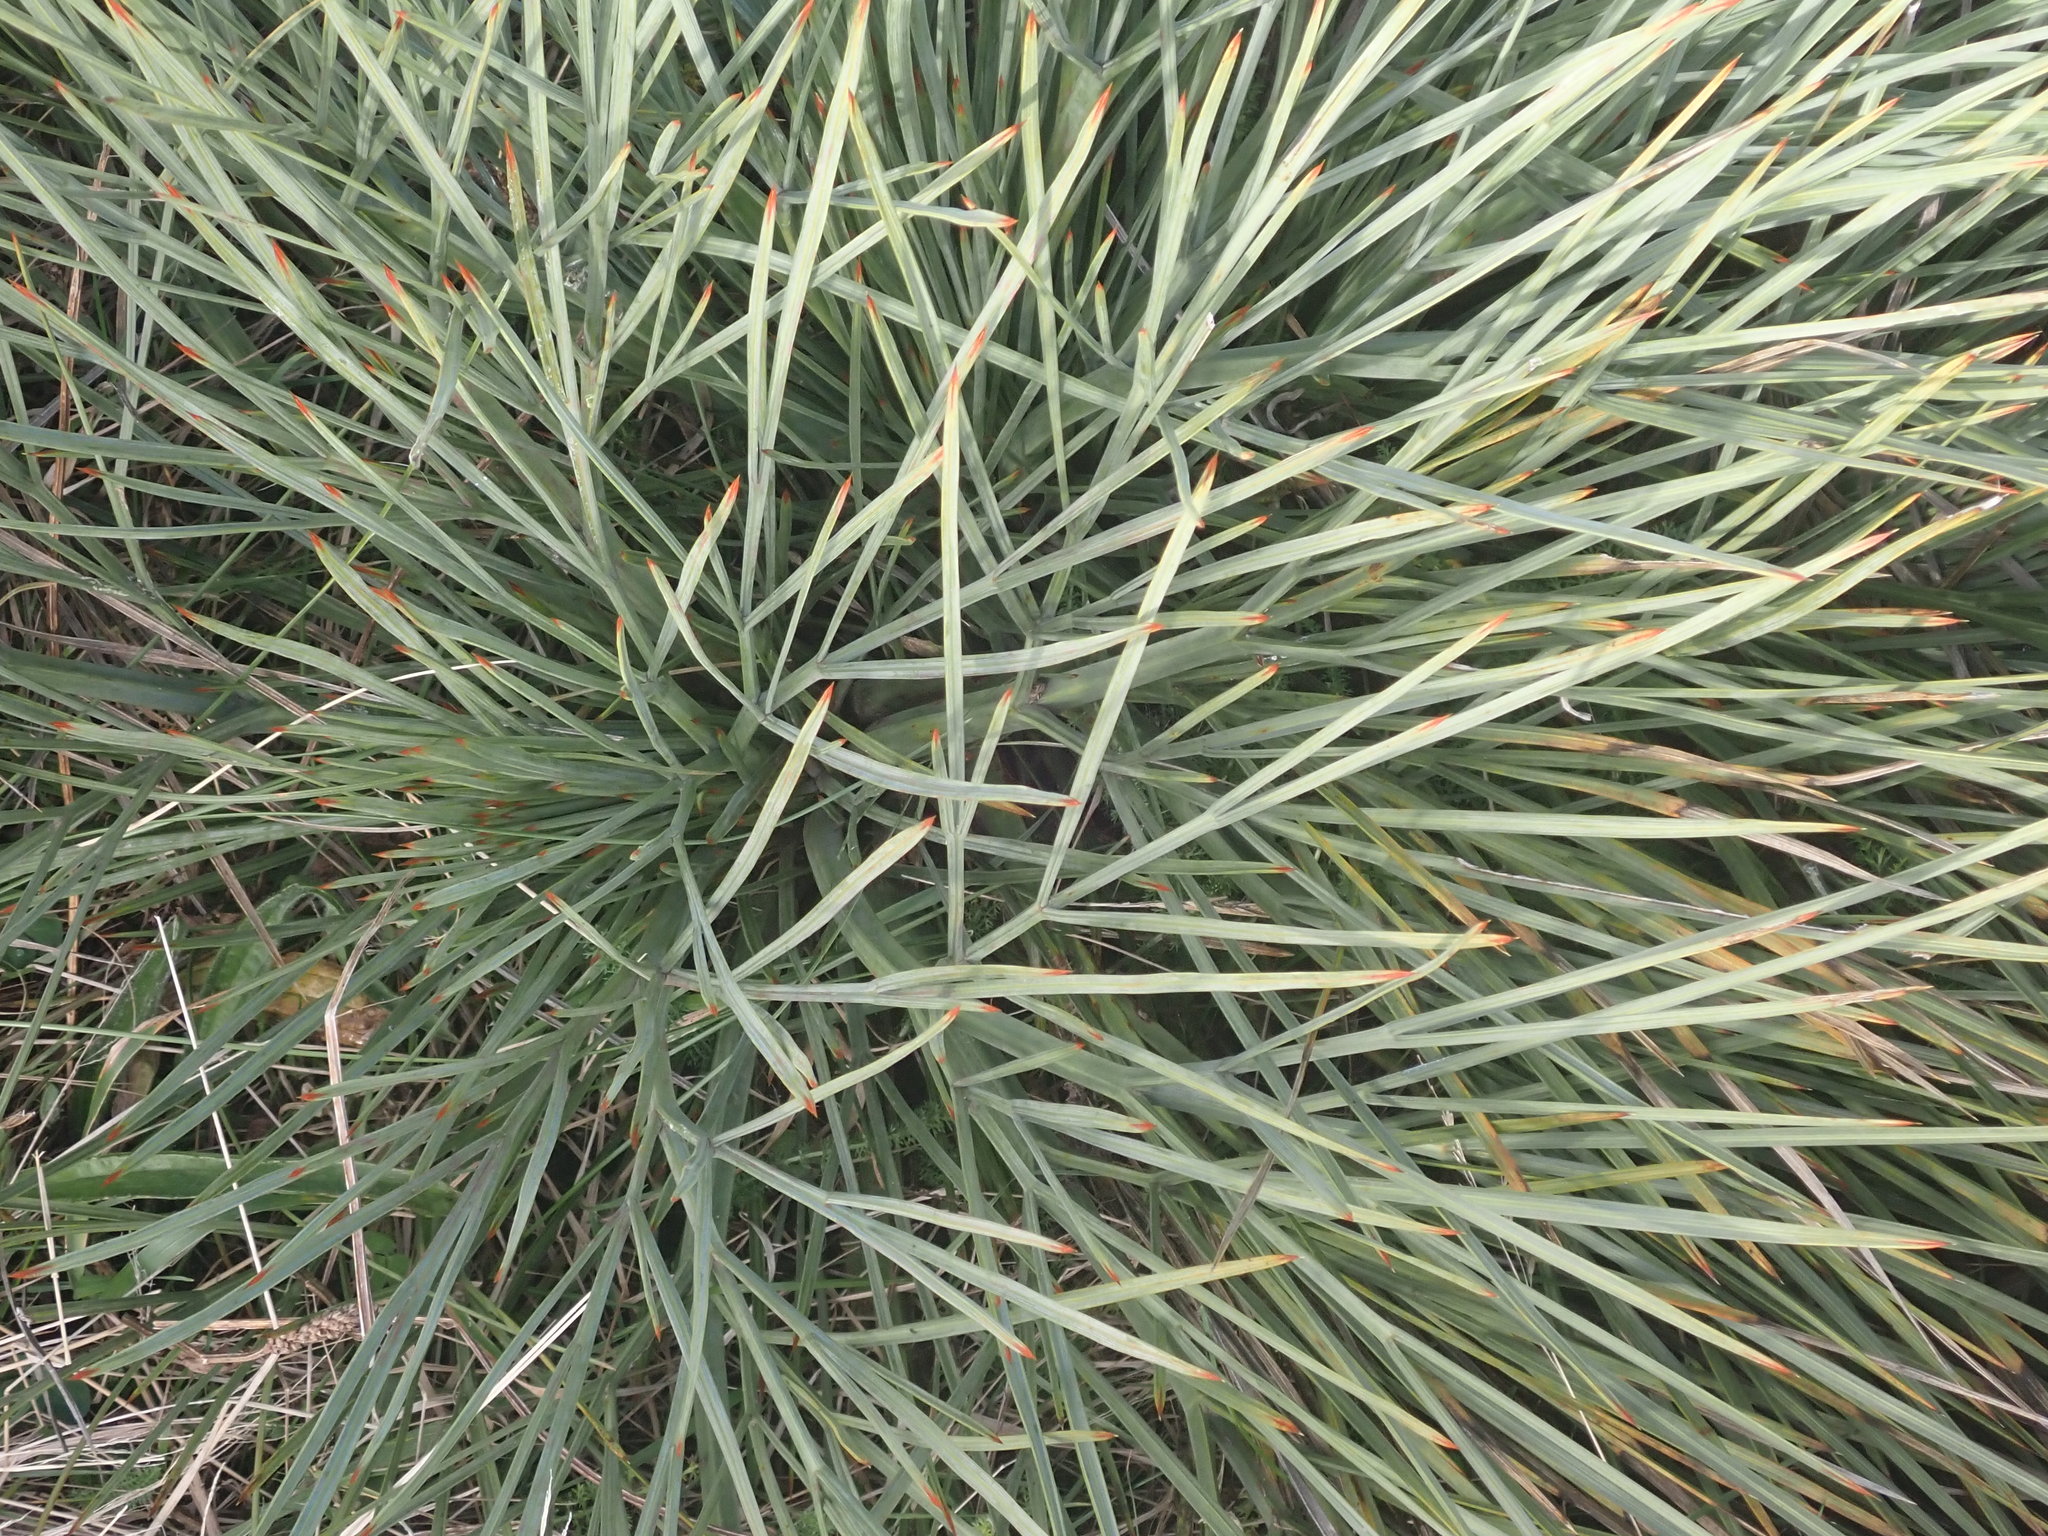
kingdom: Animalia
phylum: Arthropoda
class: Insecta
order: Coleoptera
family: Curculionidae
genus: Lyperobius
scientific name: Lyperobius huttoni
